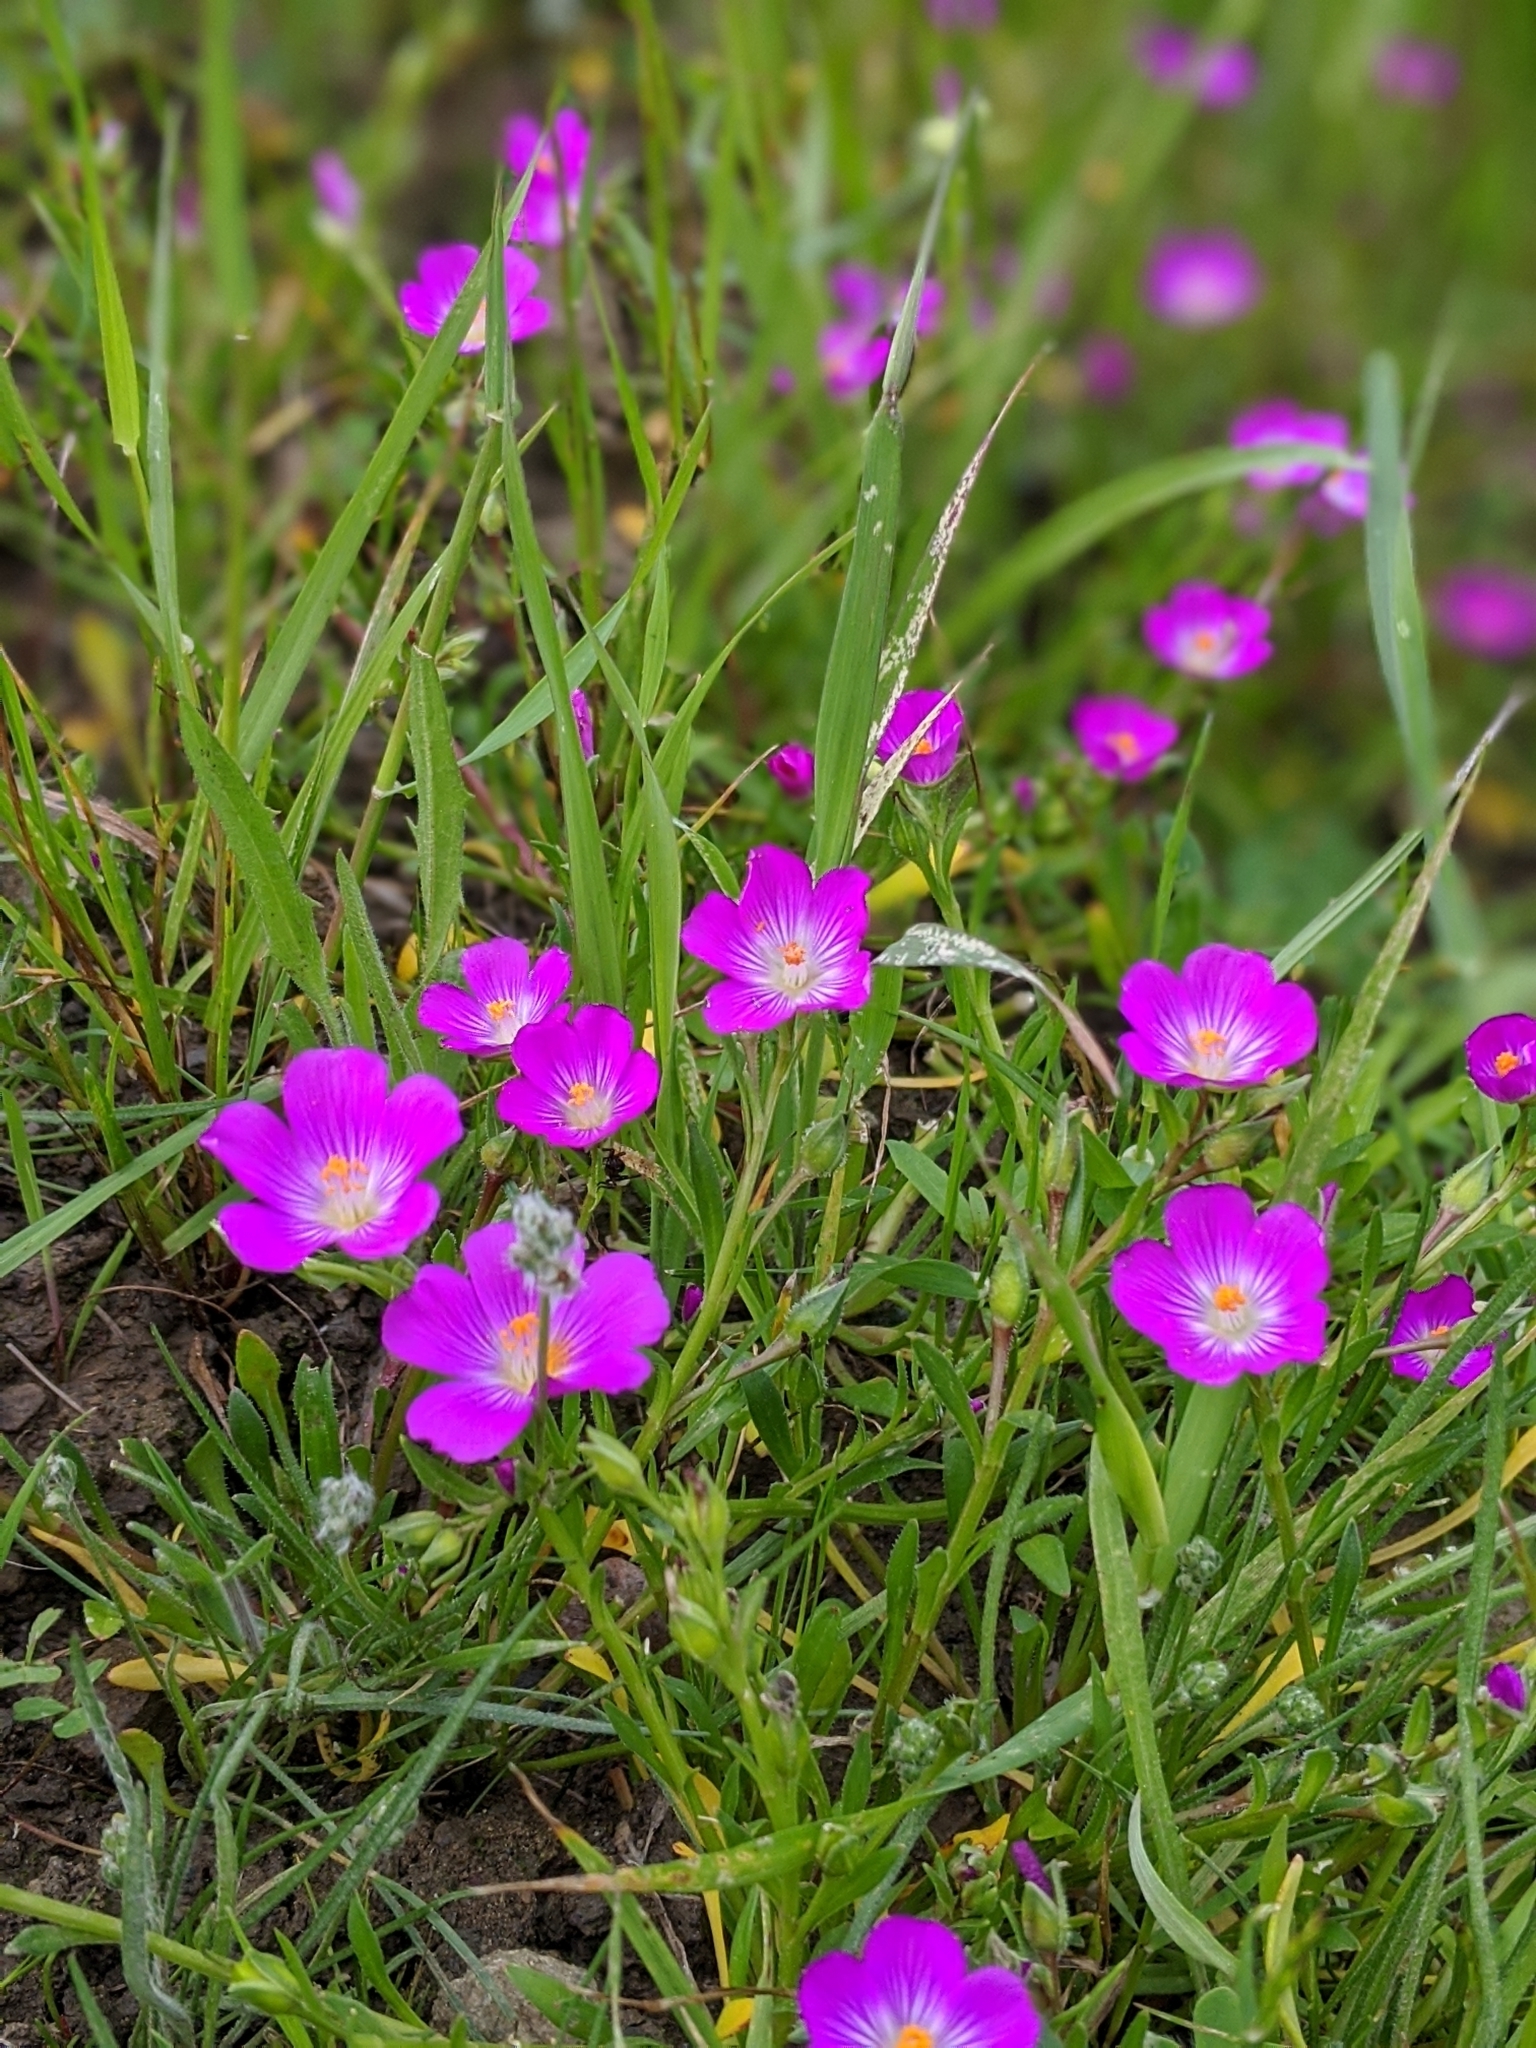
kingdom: Plantae
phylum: Tracheophyta
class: Magnoliopsida
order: Caryophyllales
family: Montiaceae
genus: Calandrinia
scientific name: Calandrinia menziesii
